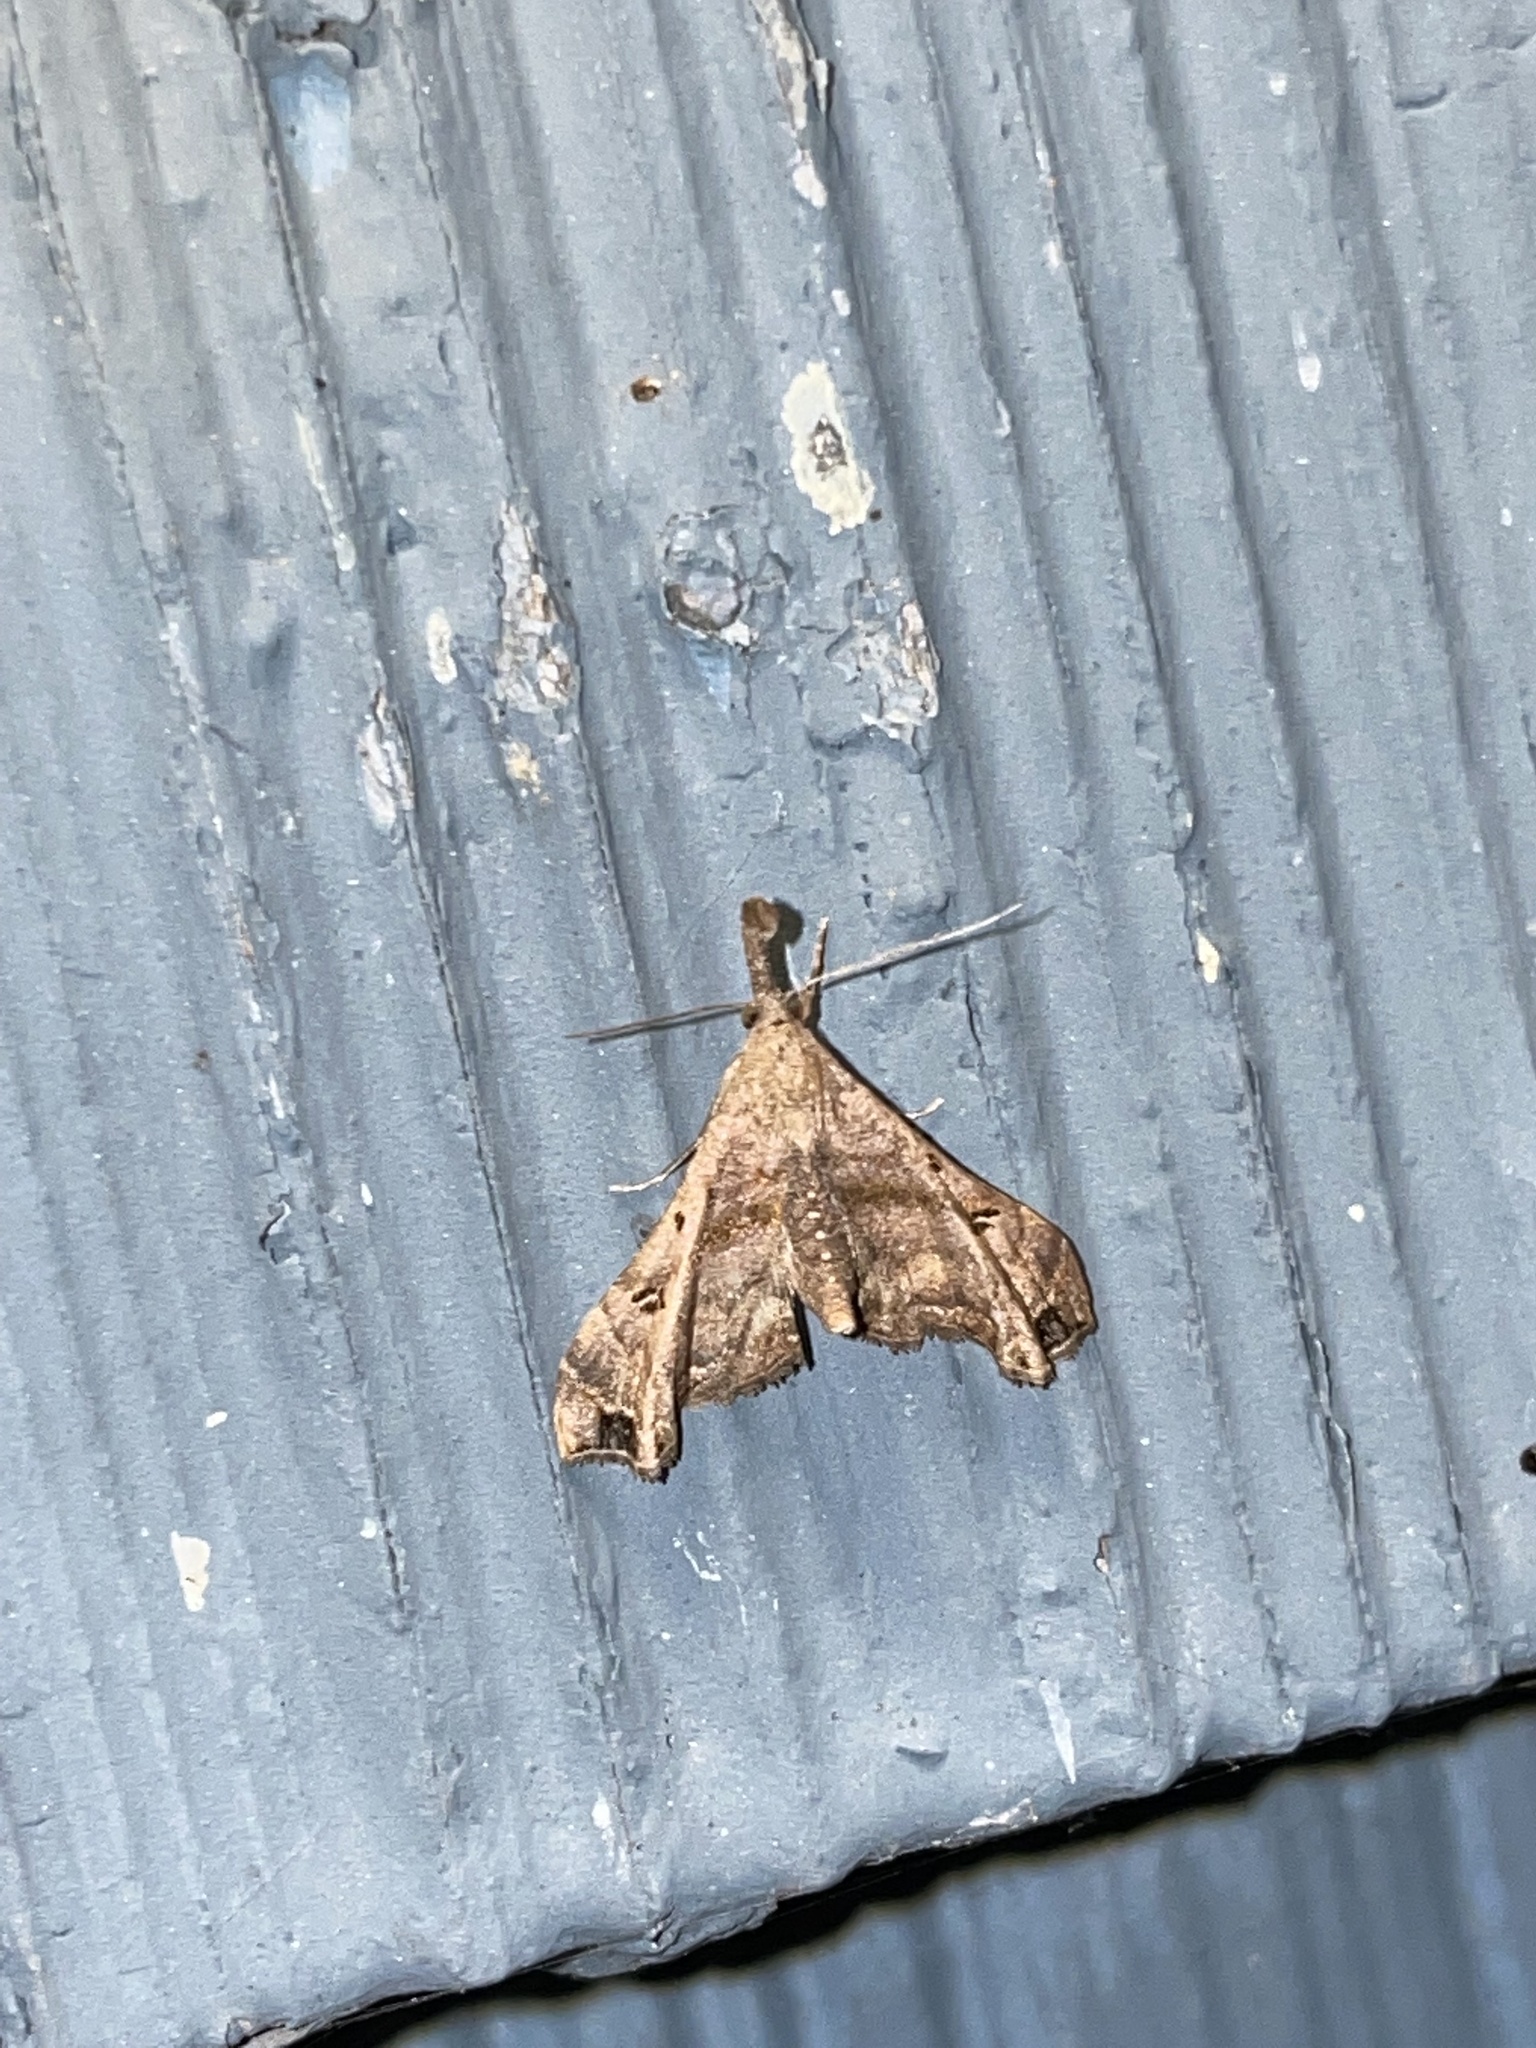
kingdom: Animalia
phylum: Arthropoda
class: Insecta
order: Lepidoptera
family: Erebidae
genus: Palthis
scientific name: Palthis asopialis
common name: Faint-spotted palthis moth
